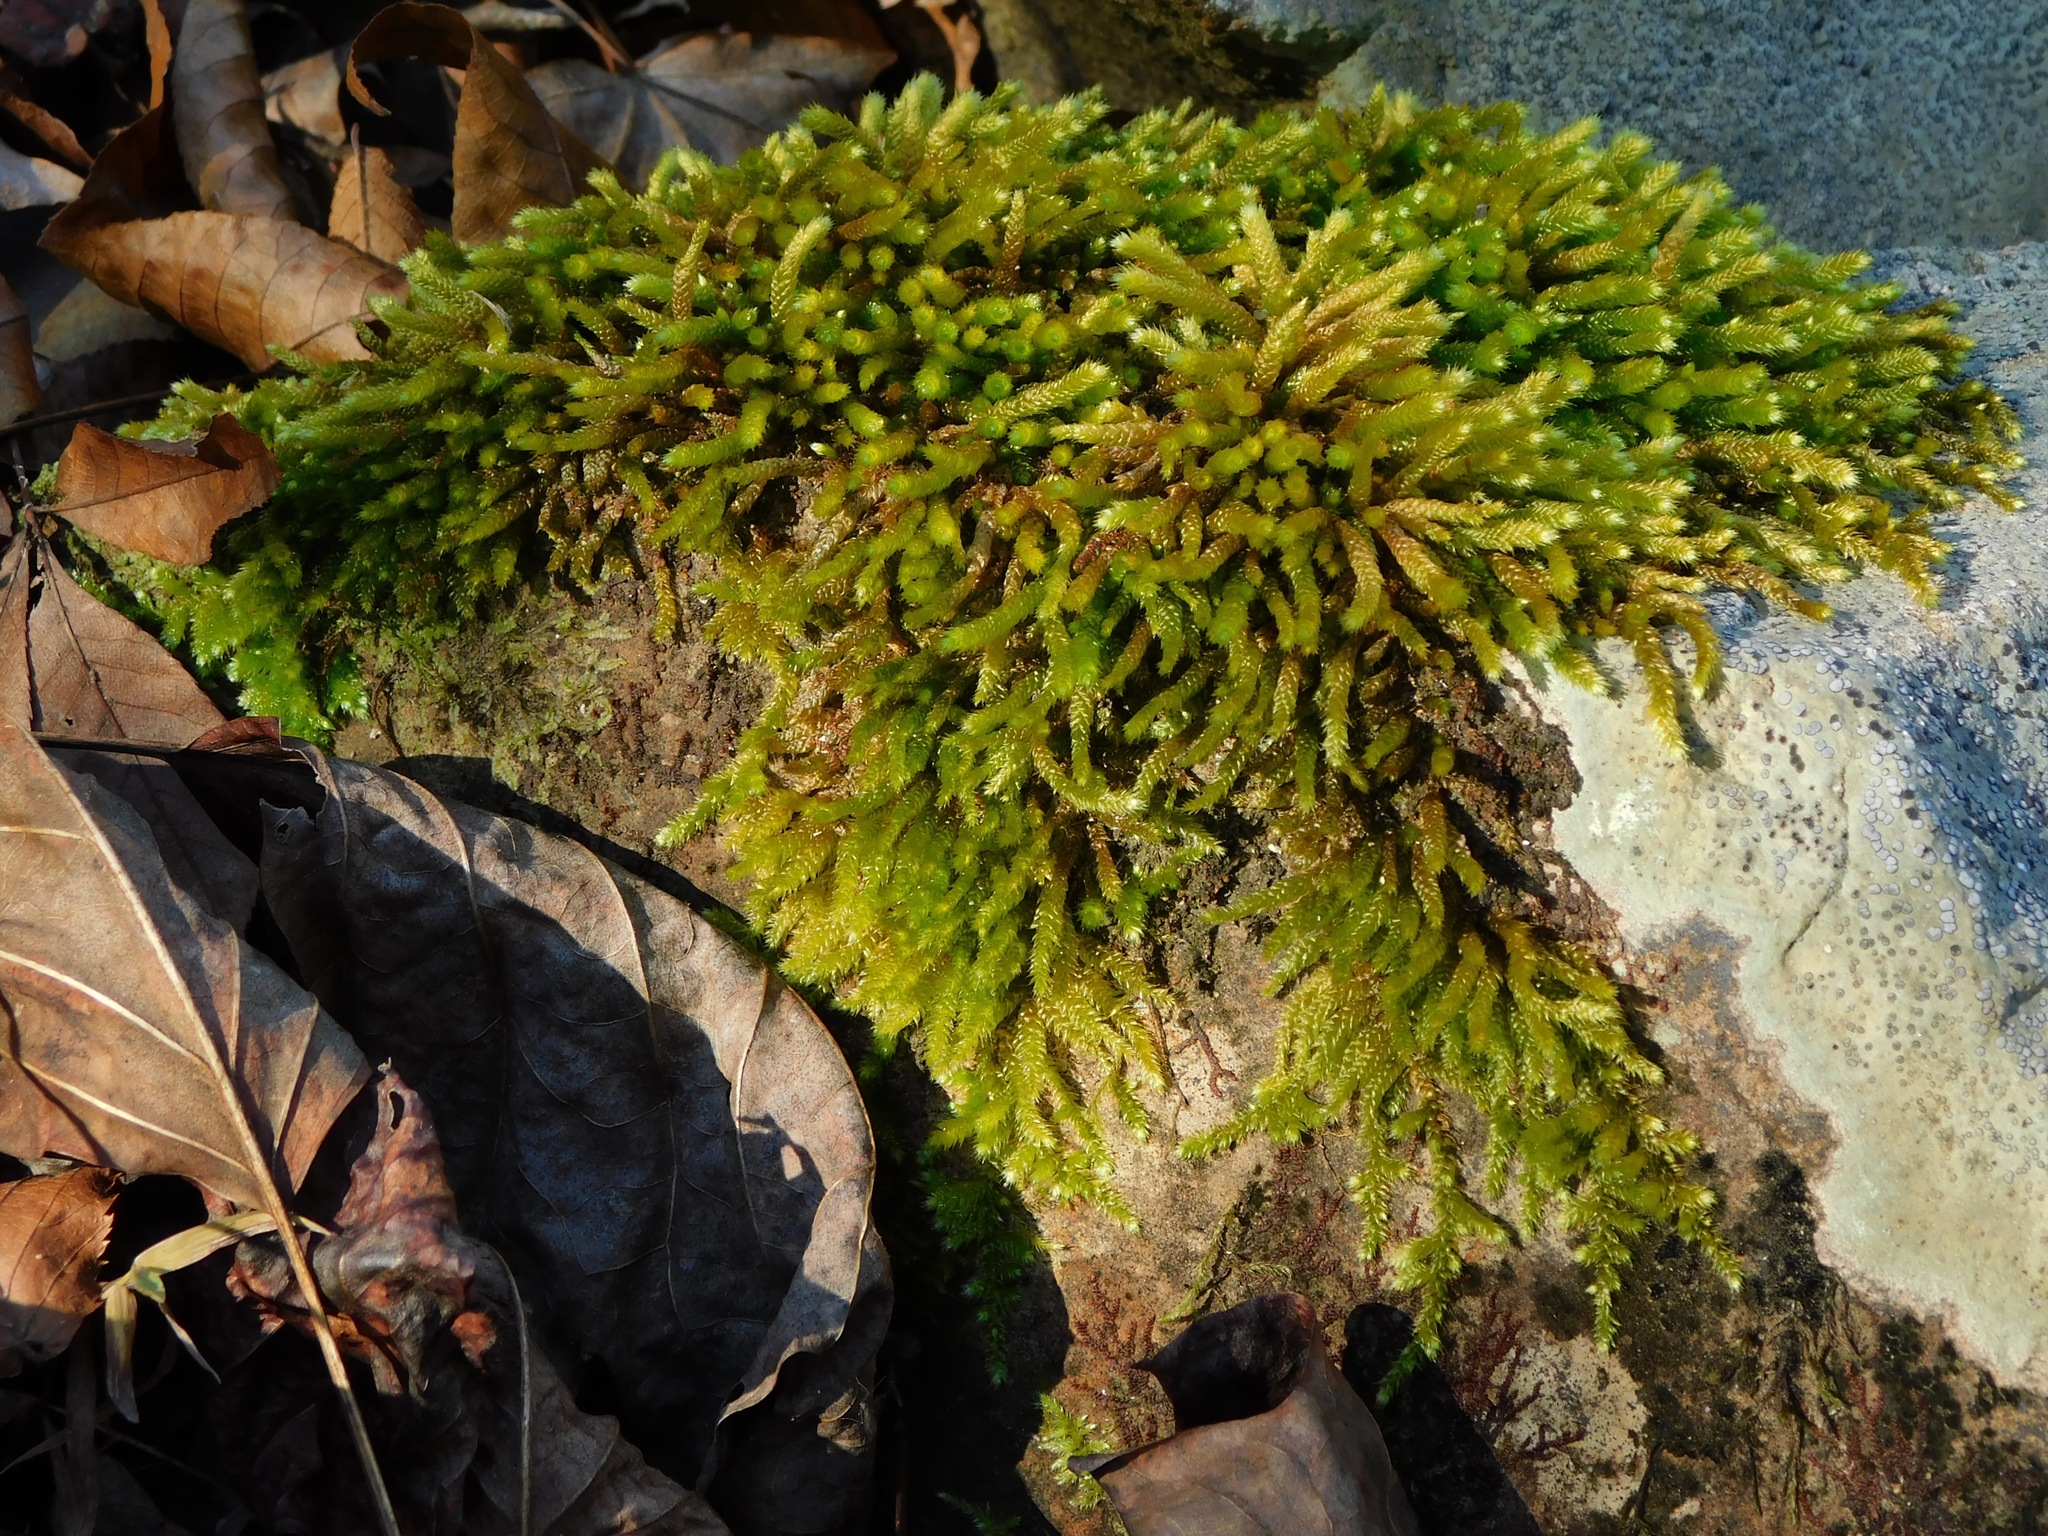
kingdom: Plantae
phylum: Bryophyta
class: Bryopsida
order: Hypnales
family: Brachytheciaceae
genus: Bryoandersonia
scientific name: Bryoandersonia illecebra
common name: Spoon-leaved moss
